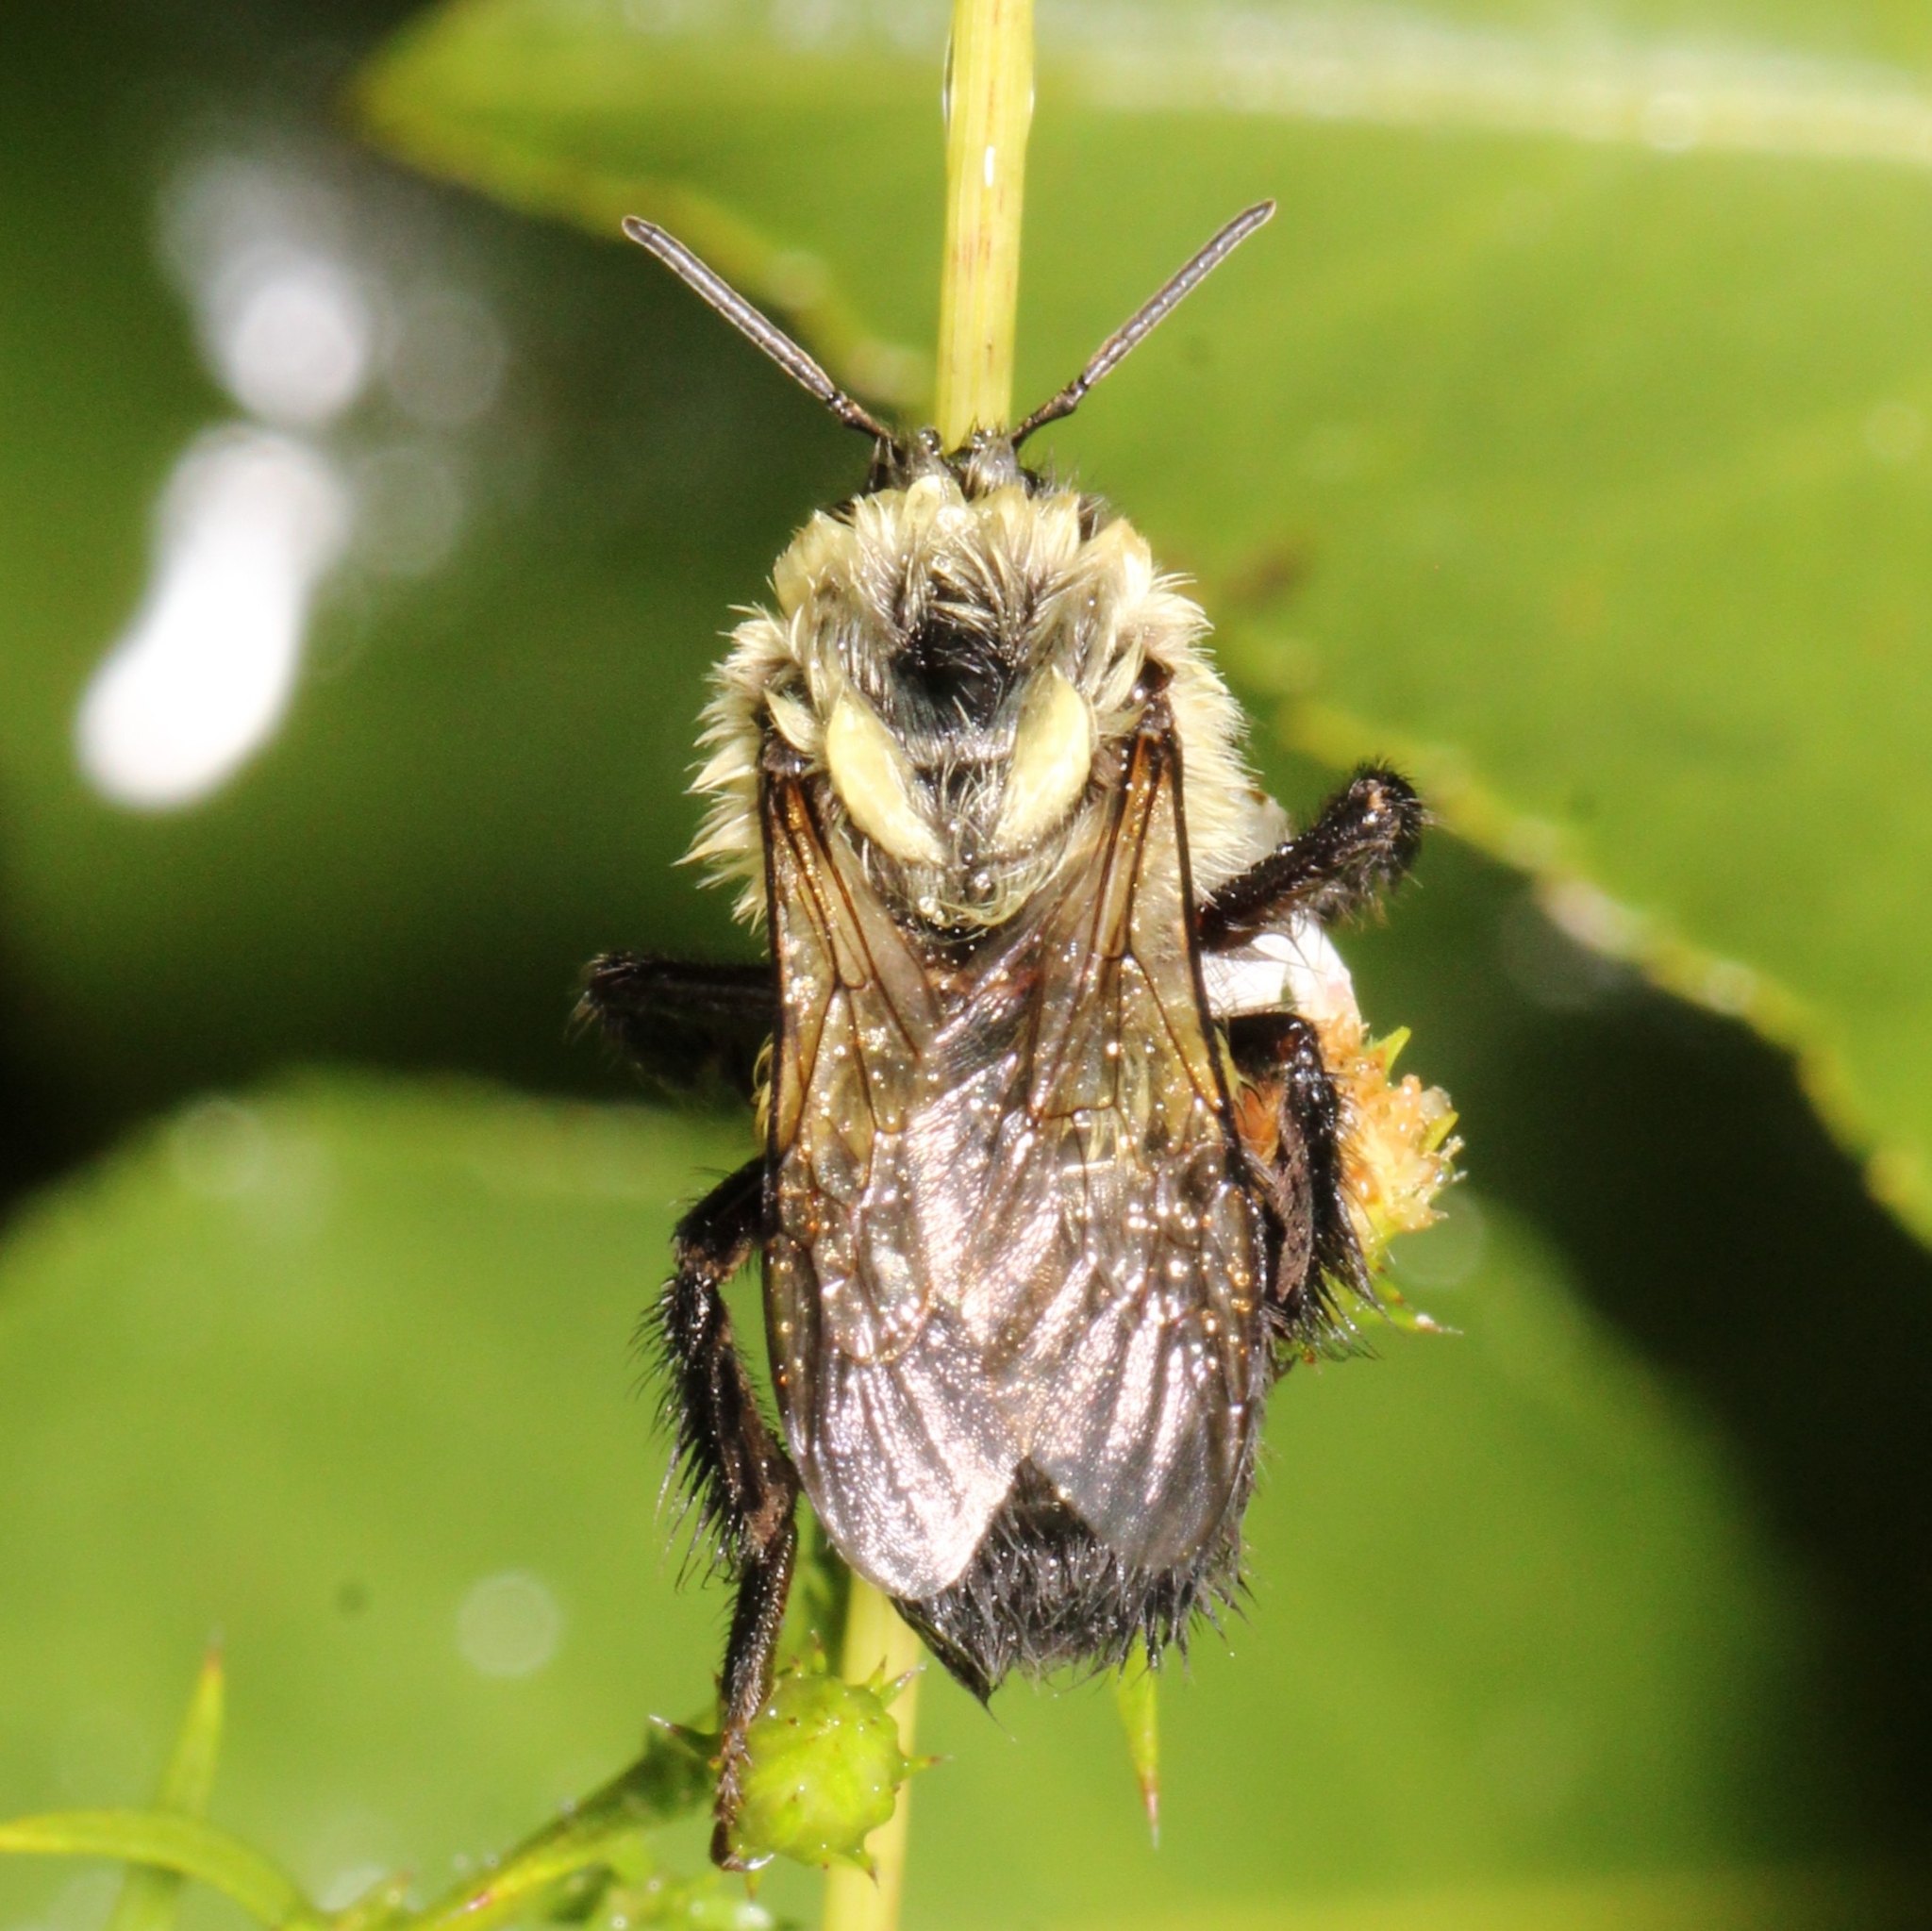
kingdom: Animalia
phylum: Arthropoda
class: Insecta
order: Hymenoptera
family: Apidae
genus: Bombus
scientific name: Bombus impatiens
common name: Common eastern bumble bee
